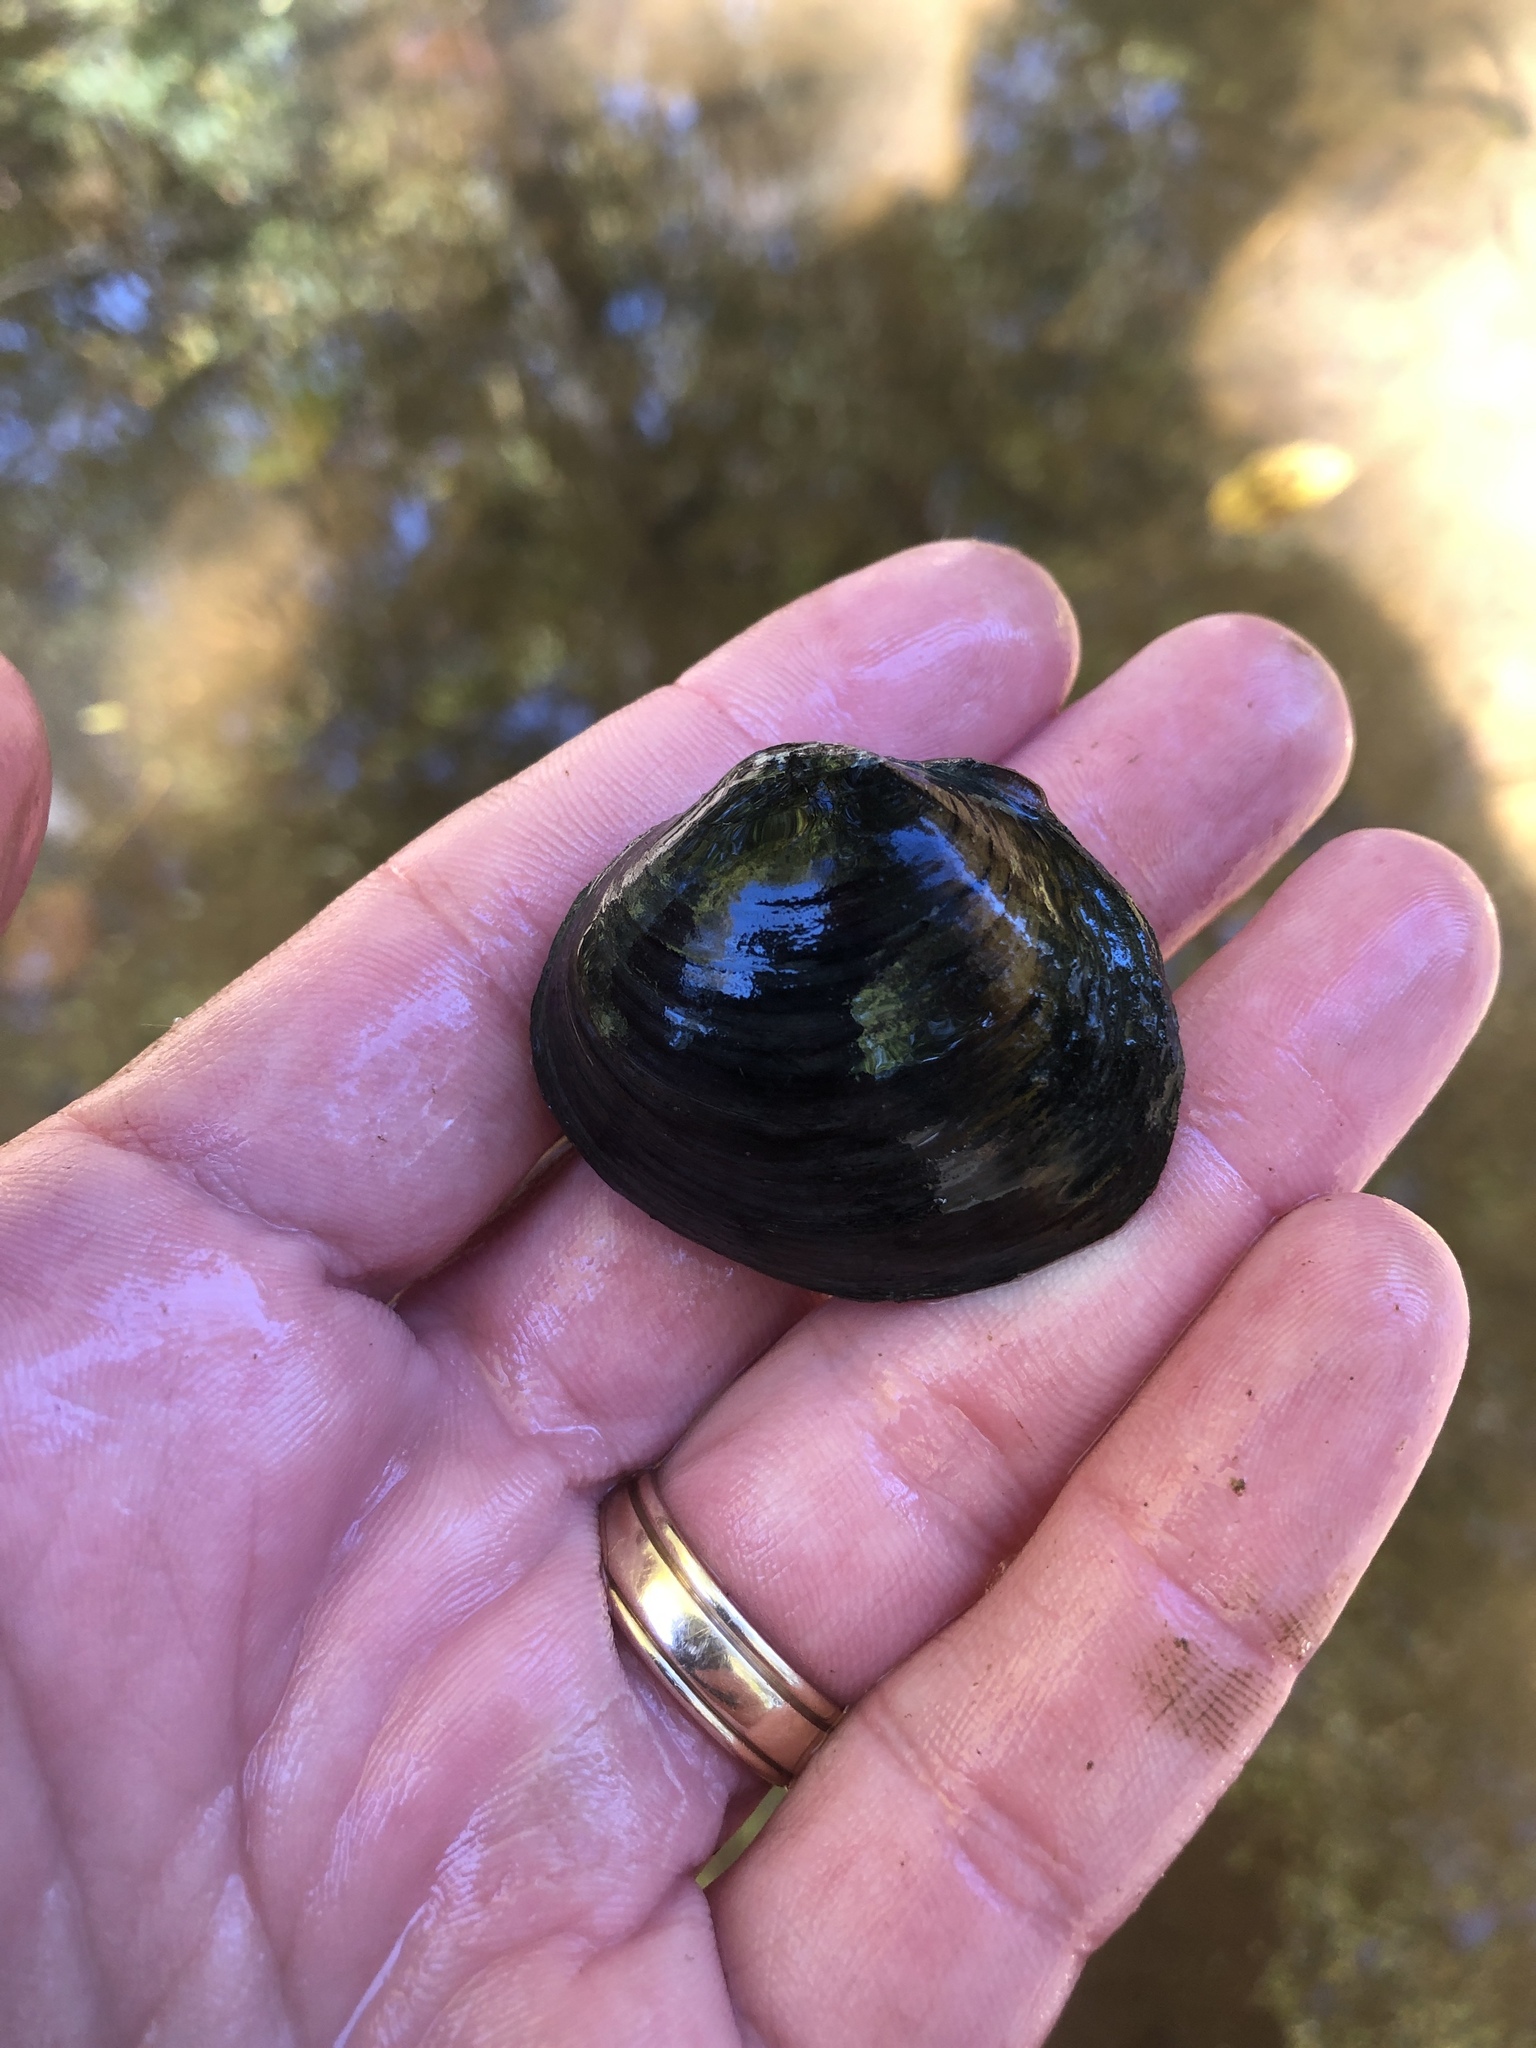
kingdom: Animalia
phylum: Mollusca
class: Bivalvia
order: Unionida
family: Unionidae
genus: Obovaria
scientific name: Obovaria subrotunda
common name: Round hickorynut
